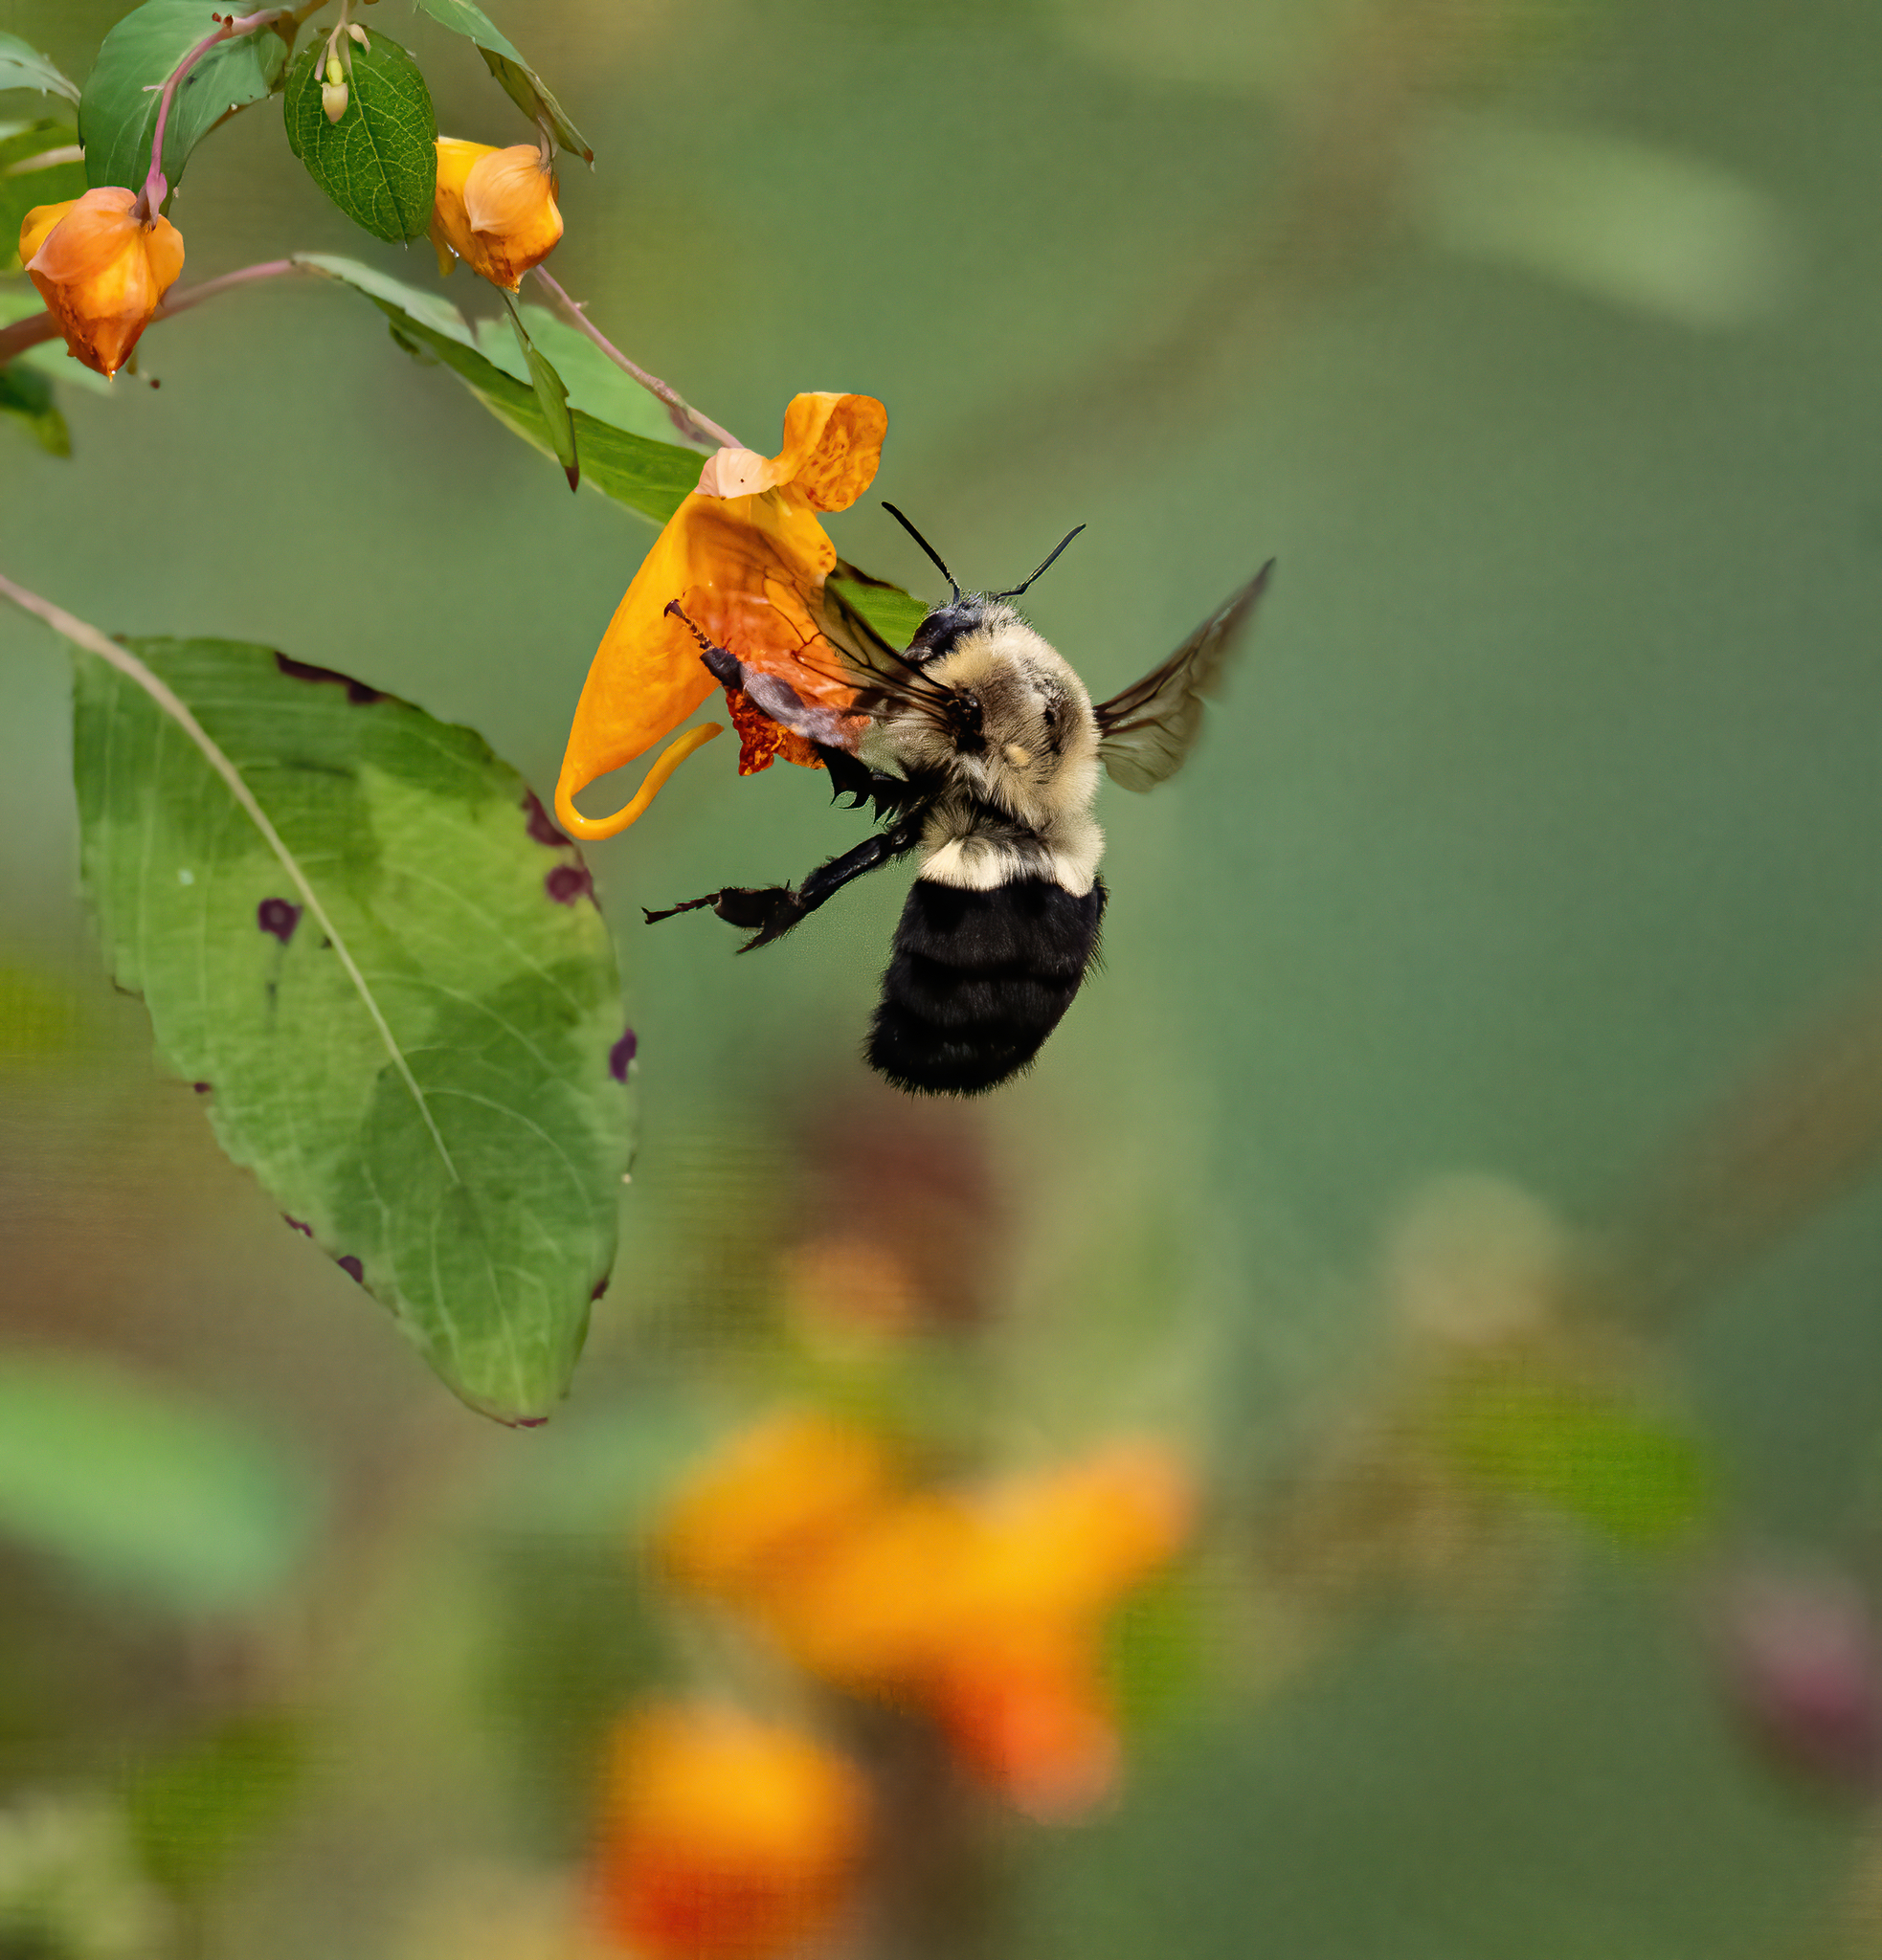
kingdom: Animalia
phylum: Arthropoda
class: Insecta
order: Hymenoptera
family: Apidae
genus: Bombus
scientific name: Bombus impatiens
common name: Common eastern bumble bee
